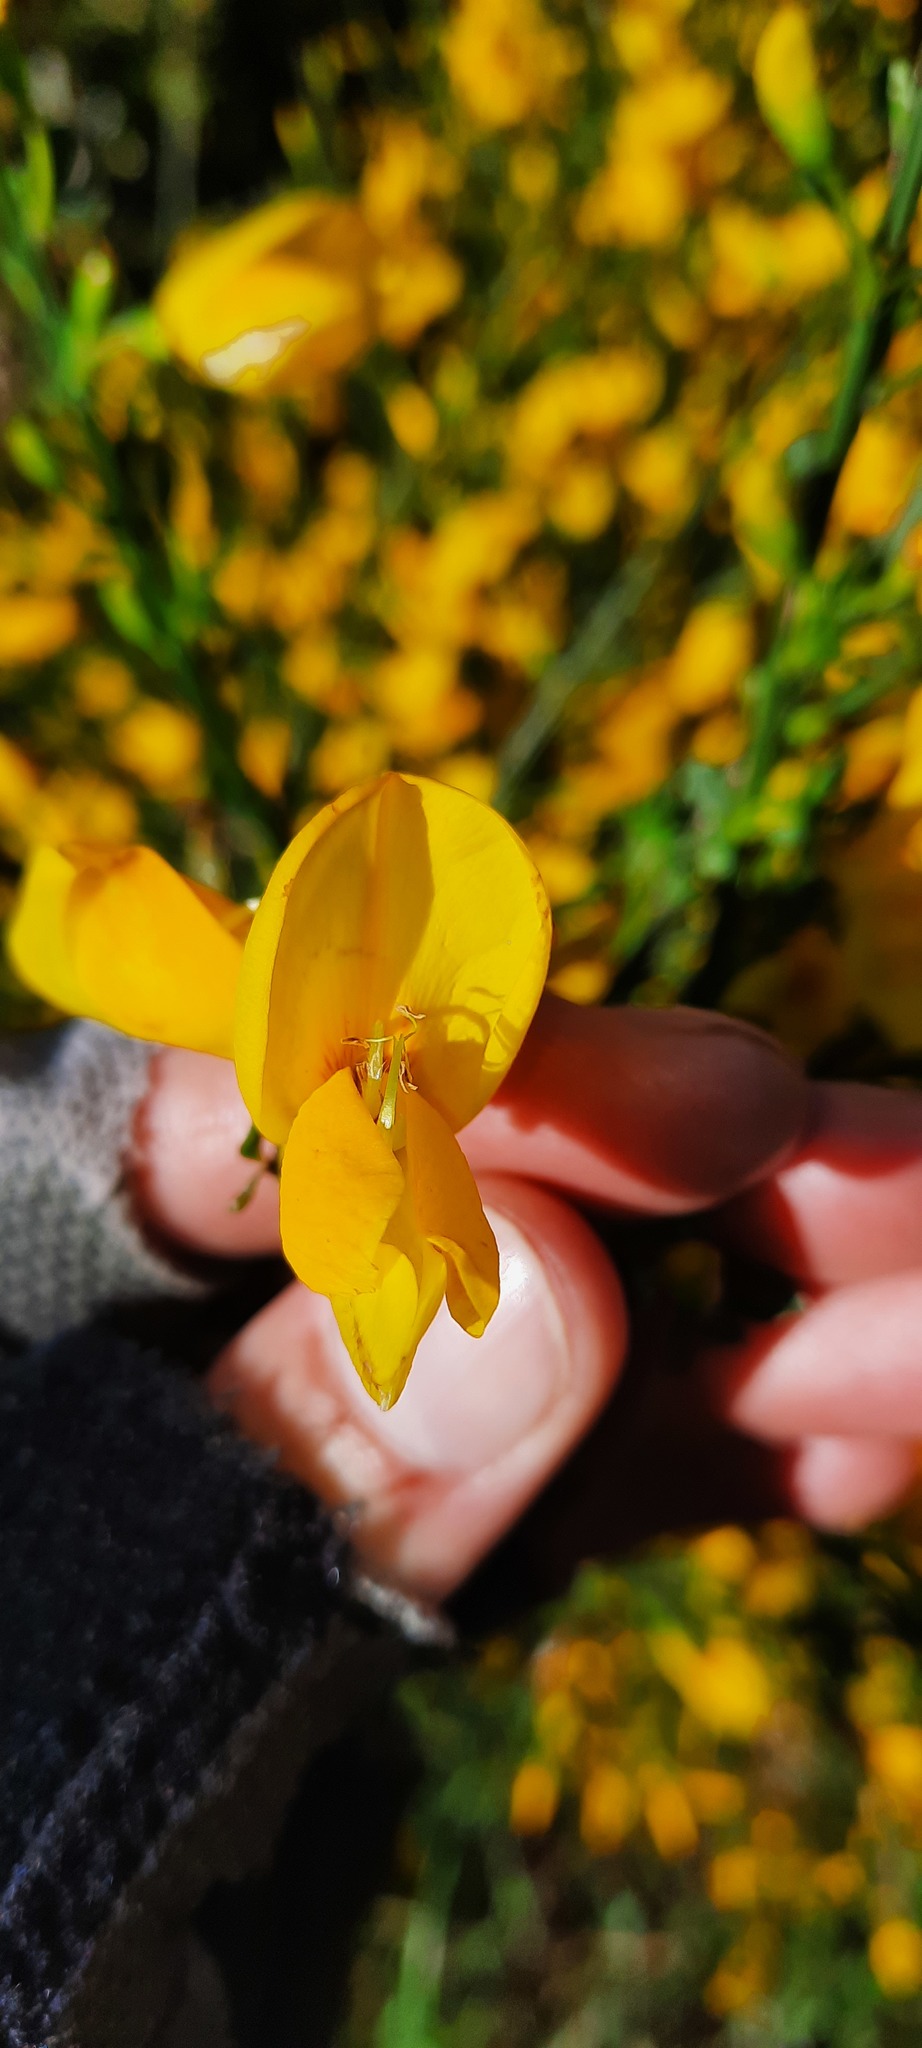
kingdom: Plantae
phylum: Tracheophyta
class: Magnoliopsida
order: Fabales
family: Fabaceae
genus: Cytisus
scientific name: Cytisus scoparius
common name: Scotch broom
